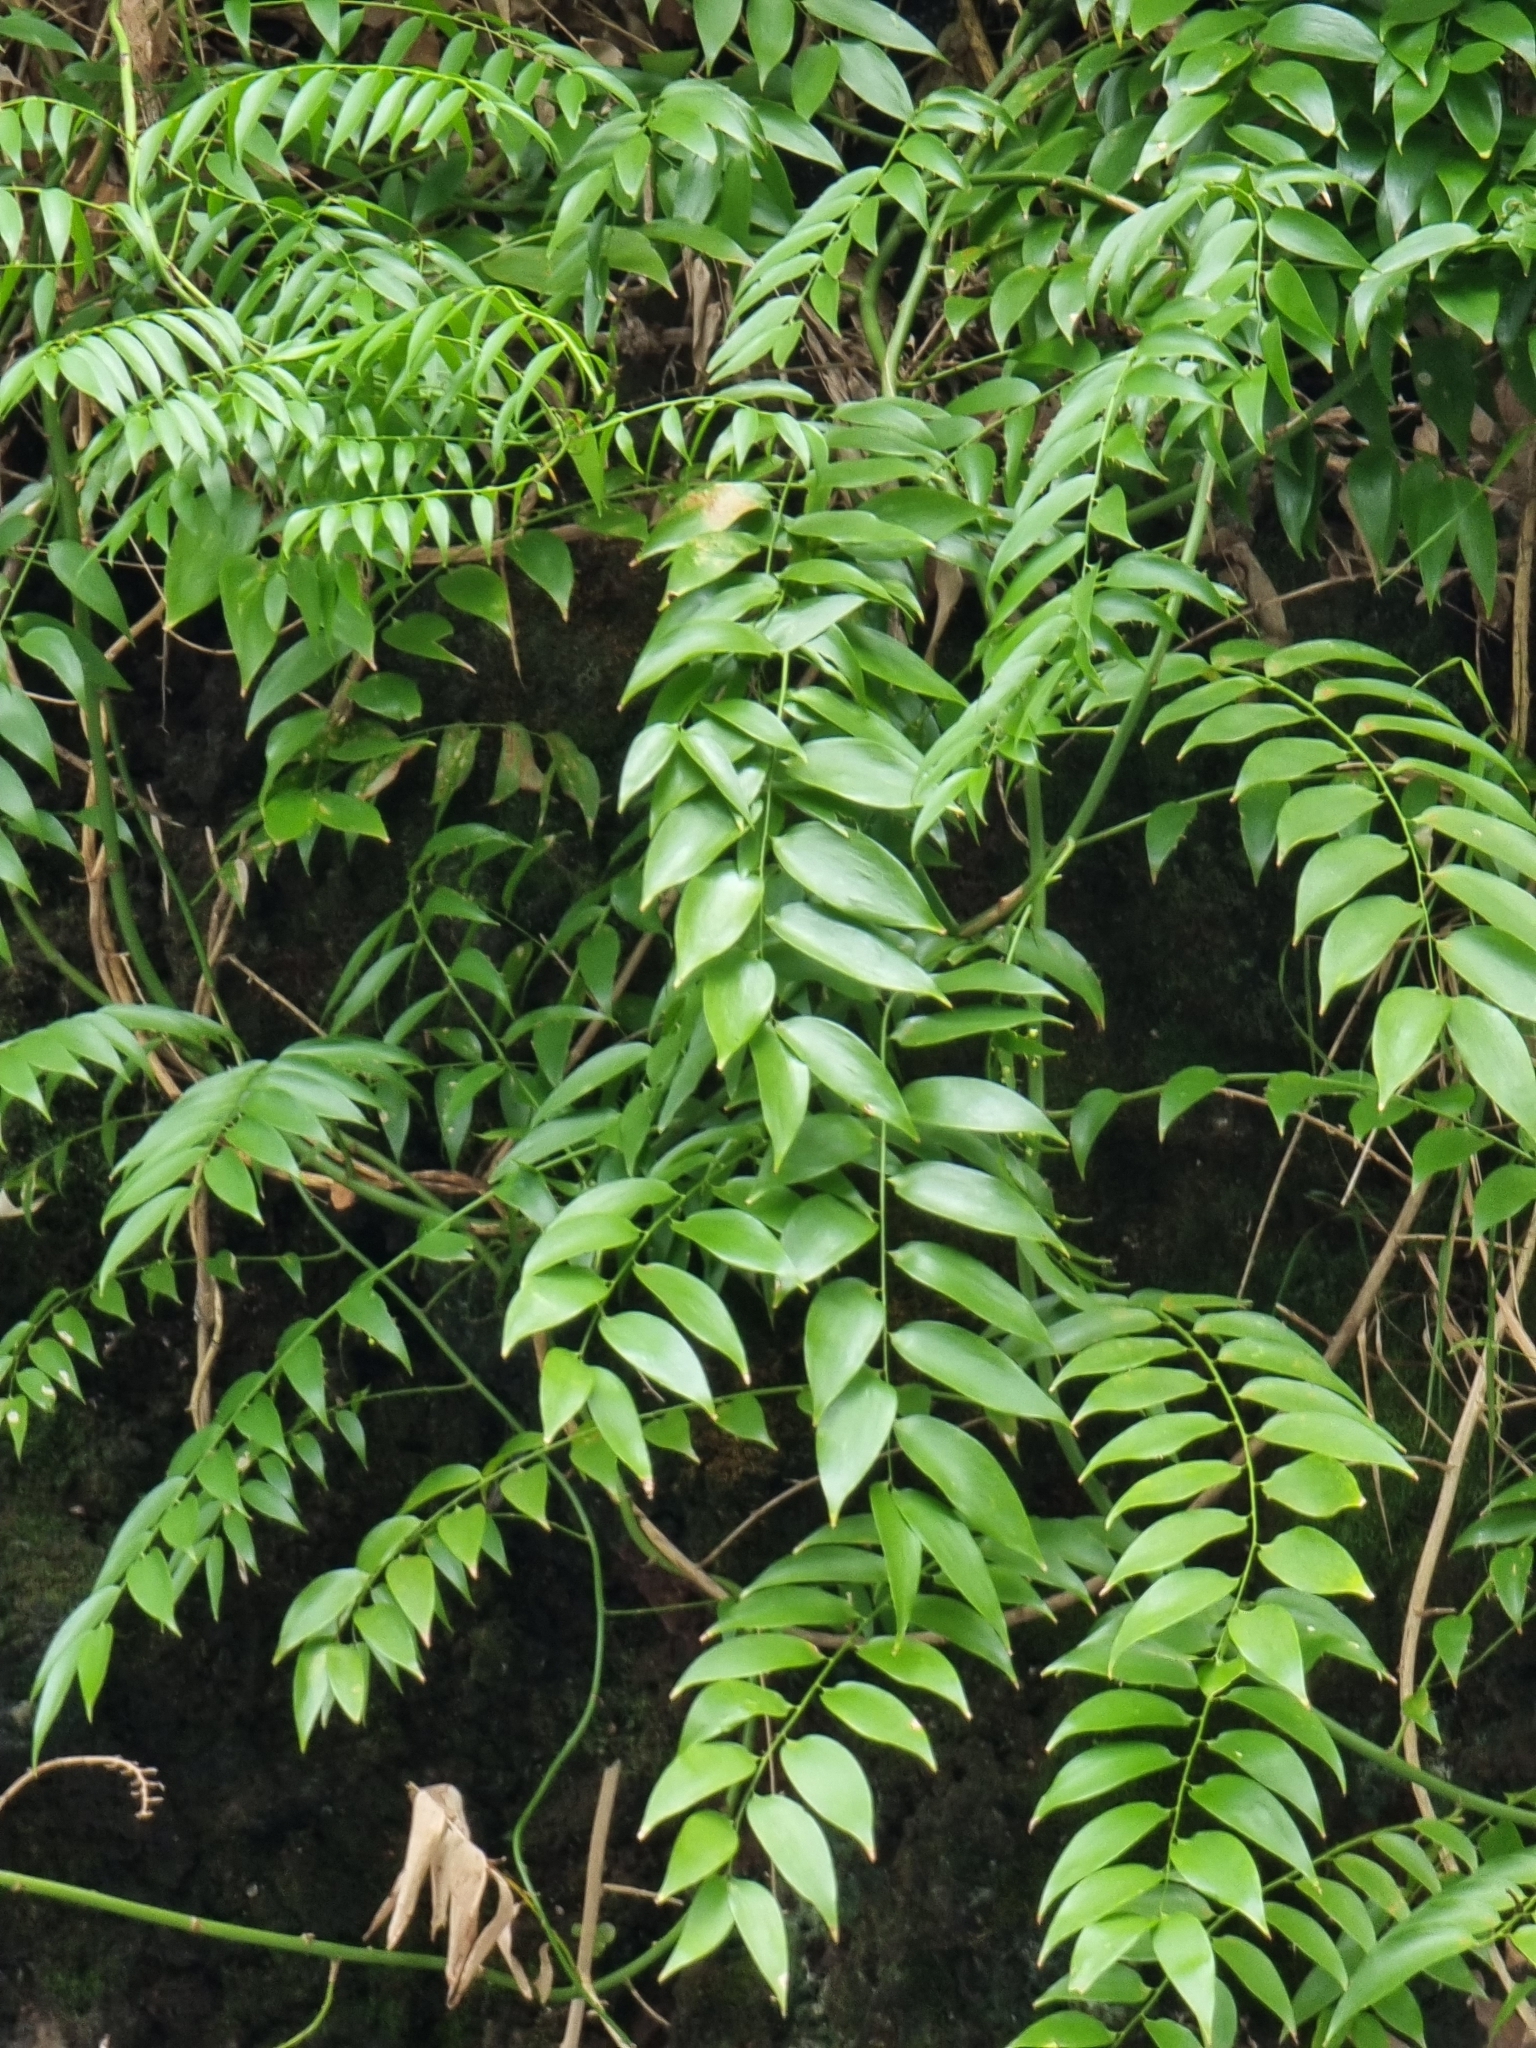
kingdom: Plantae
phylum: Tracheophyta
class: Liliopsida
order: Asparagales
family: Asparagaceae
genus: Semele
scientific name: Semele androgyna
